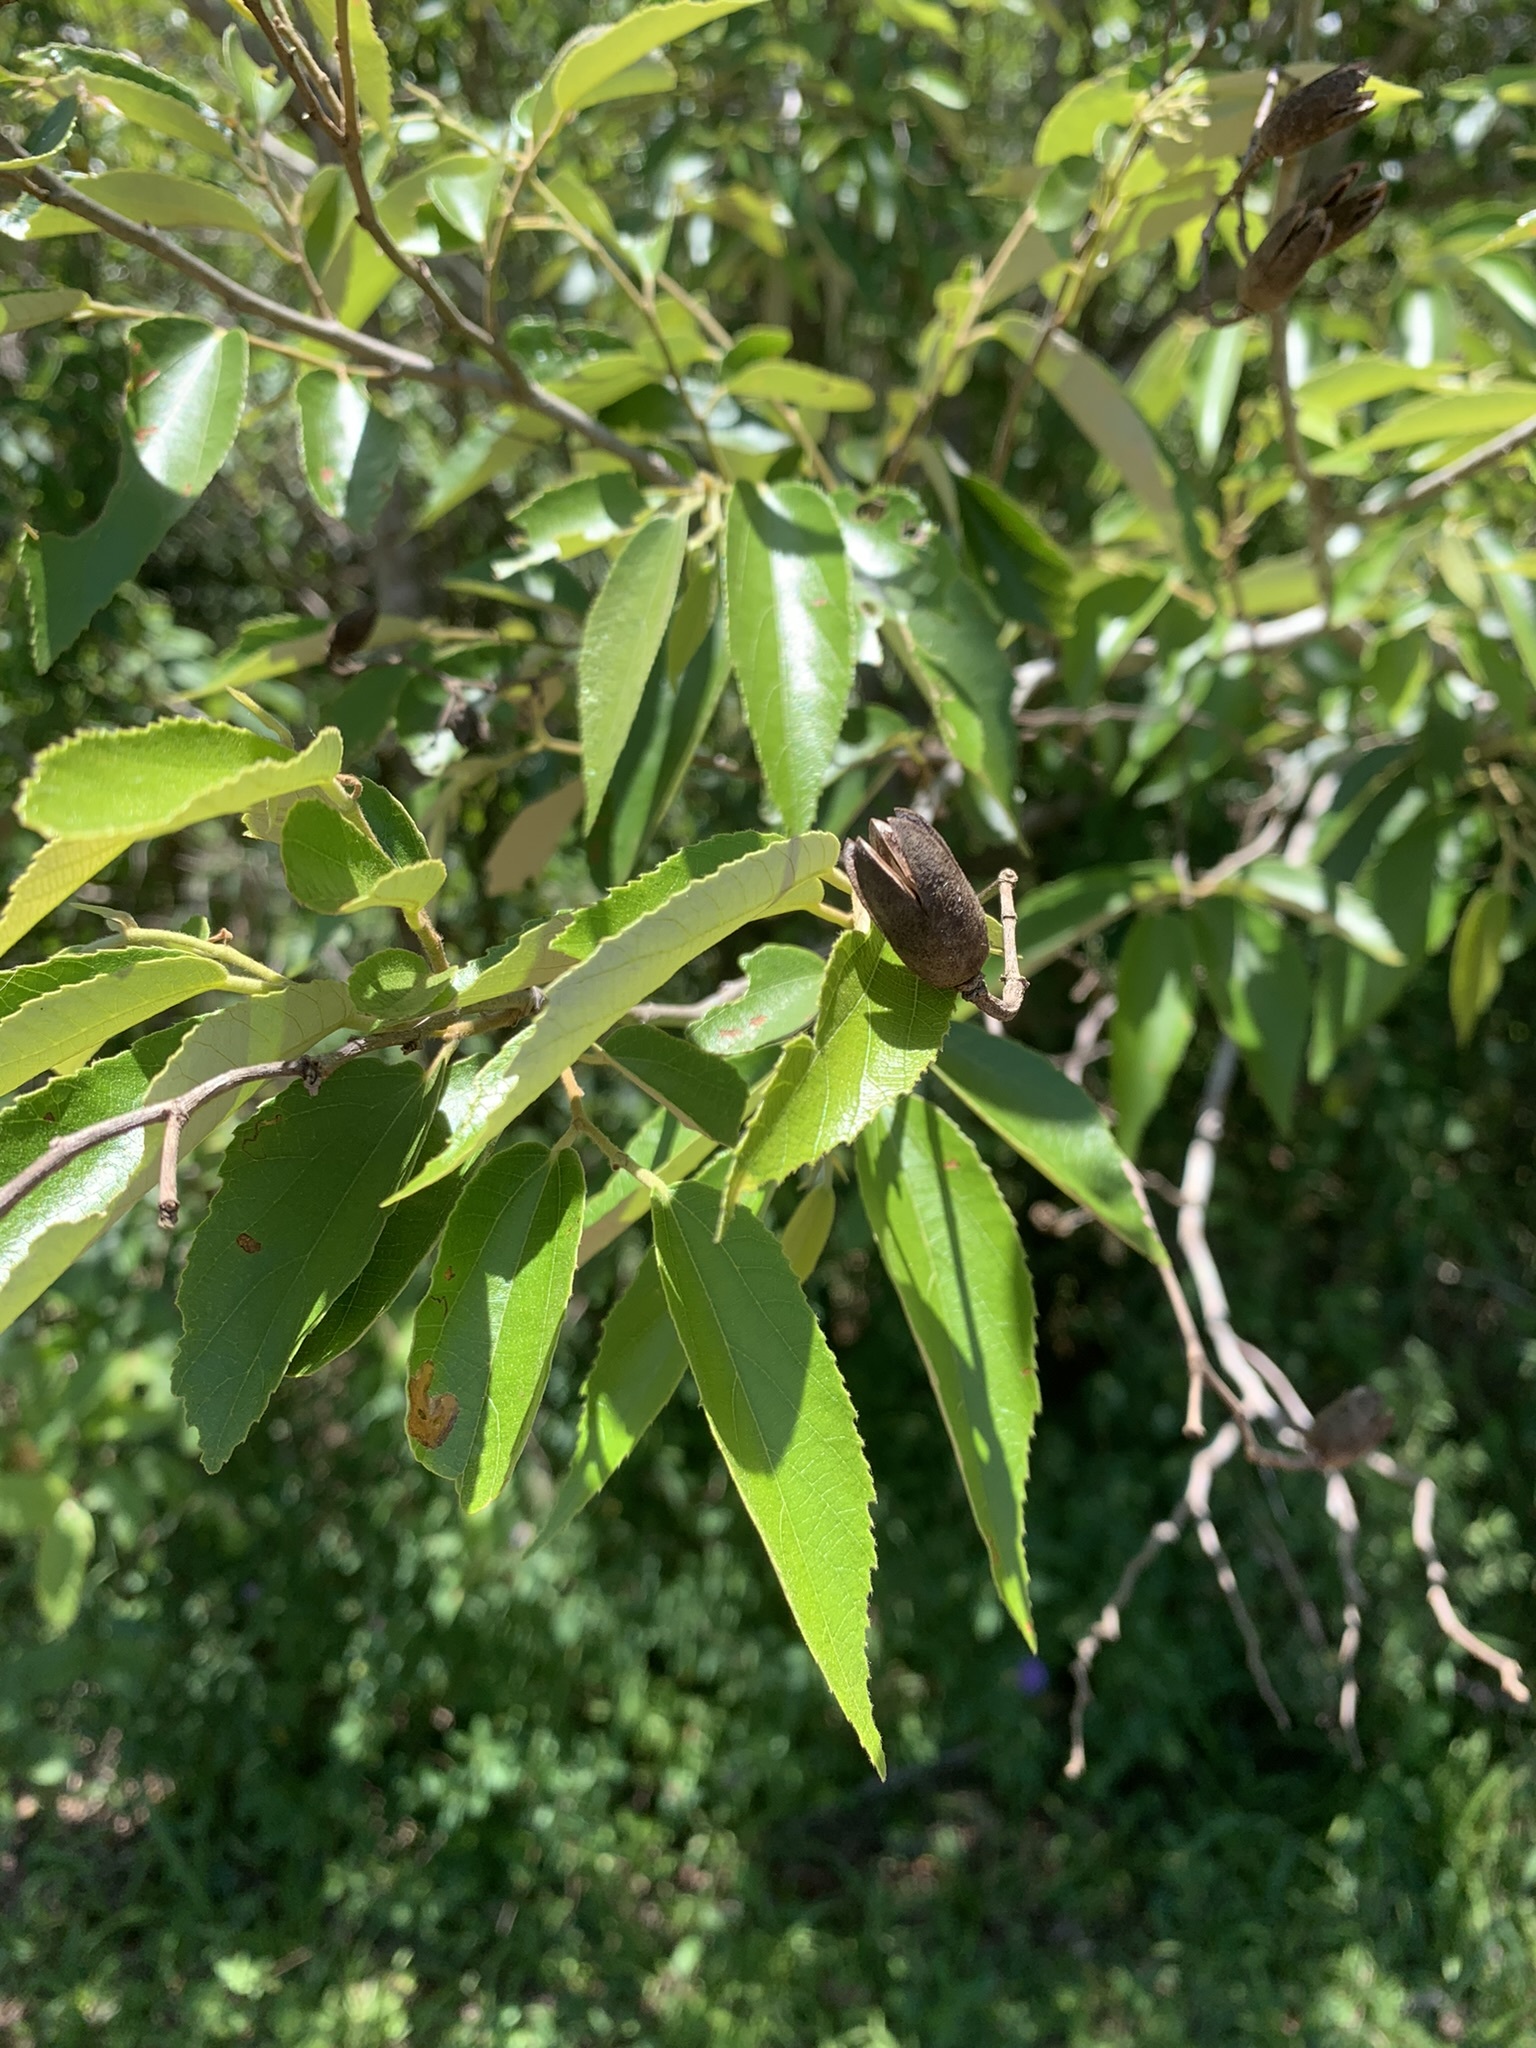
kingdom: Plantae
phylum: Tracheophyta
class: Magnoliopsida
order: Malvales
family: Malvaceae
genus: Luehea
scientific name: Luehea divaricata
